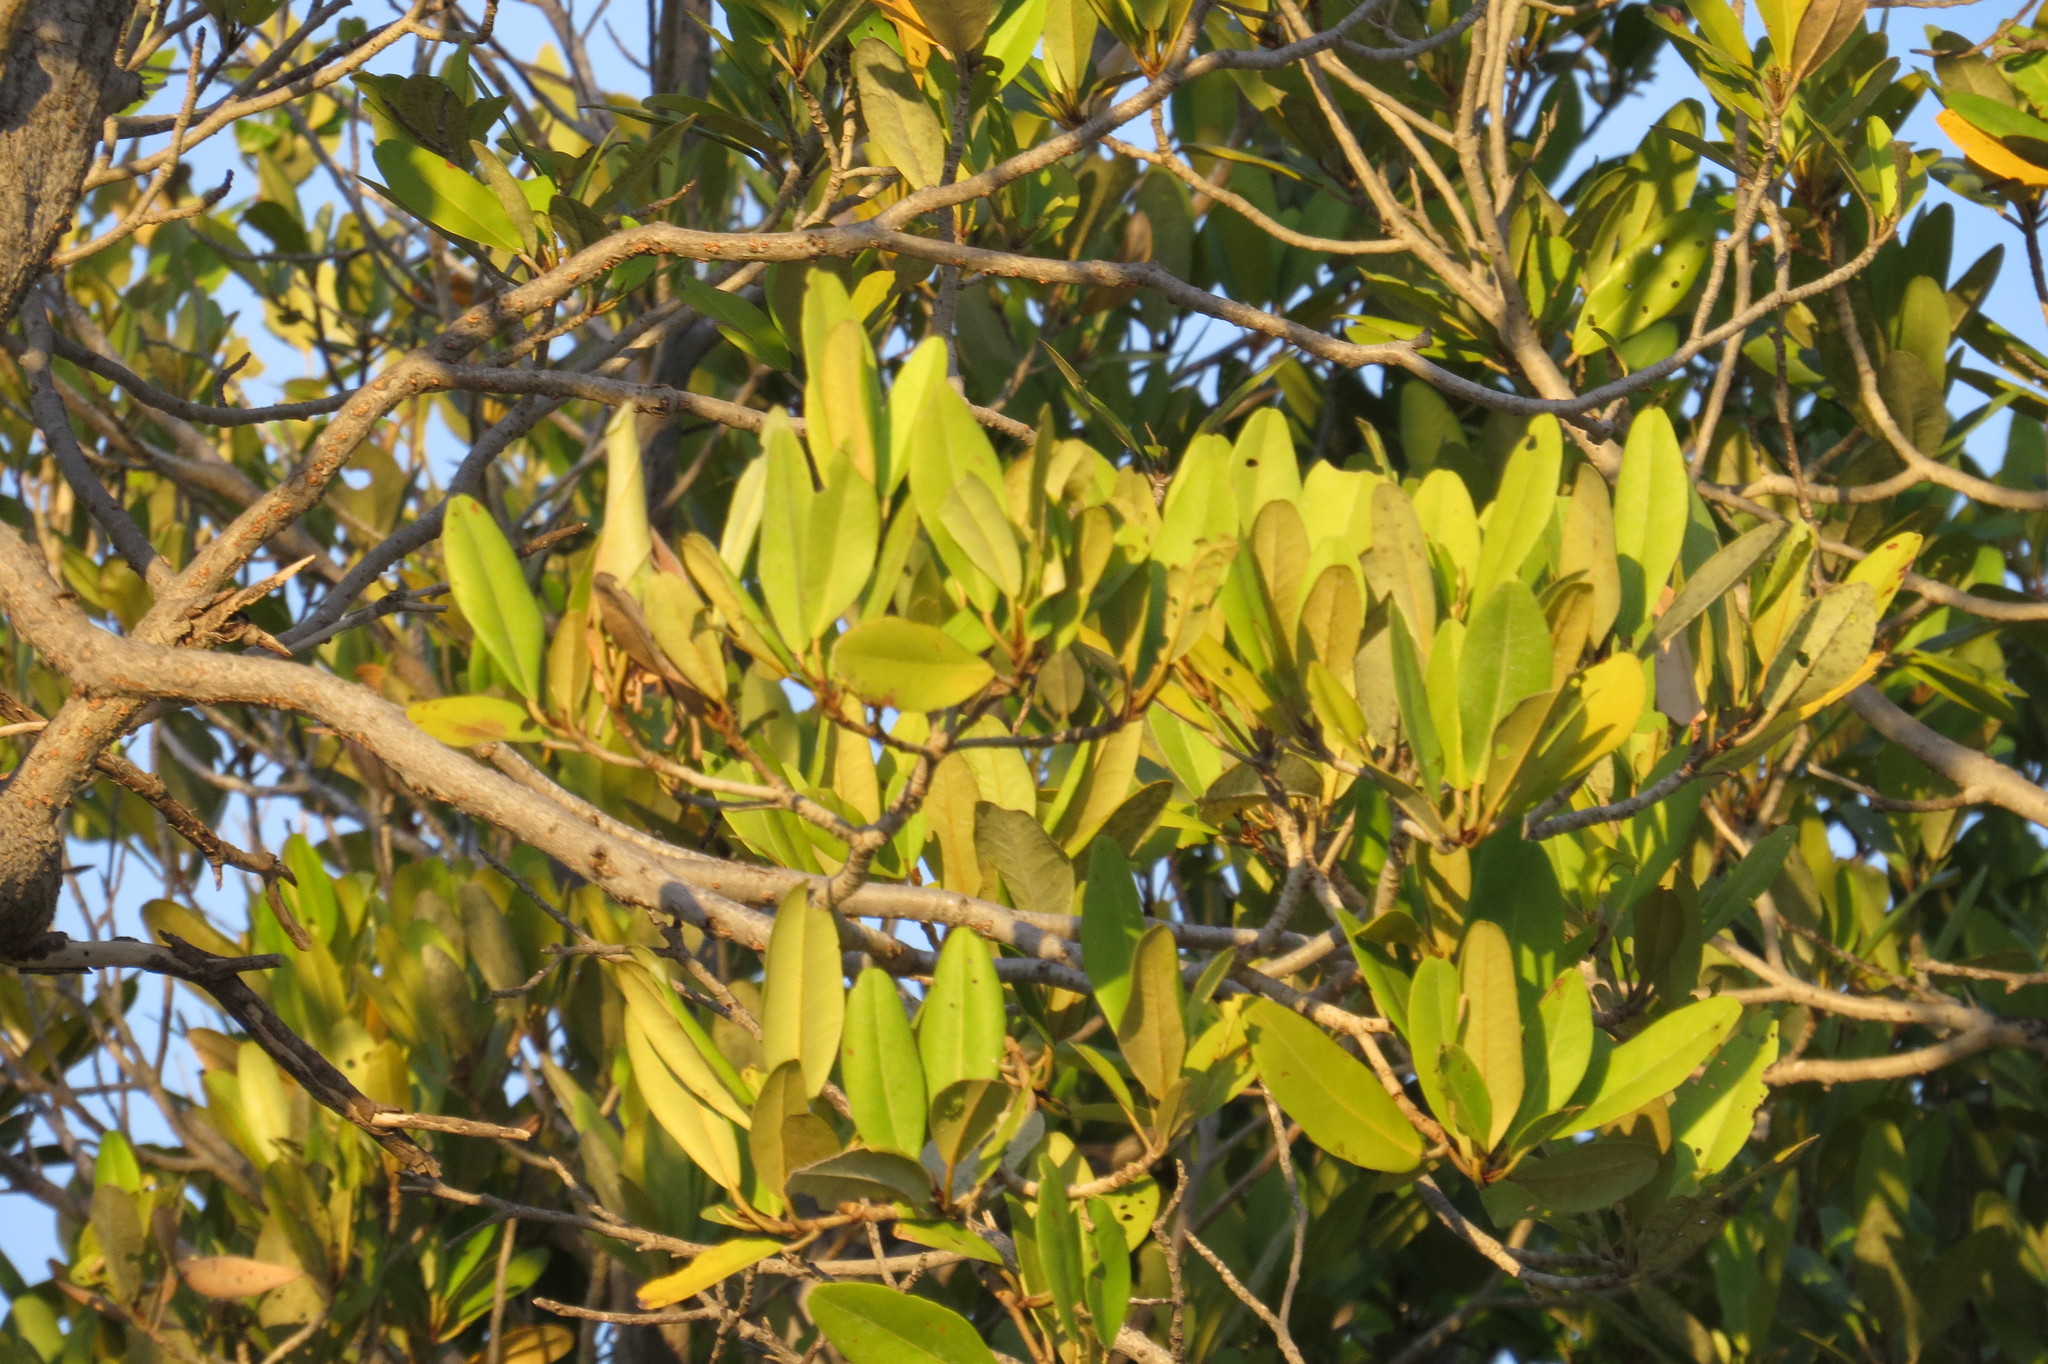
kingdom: Plantae
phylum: Tracheophyta
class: Magnoliopsida
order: Malvales
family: Malvaceae
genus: Camptostemon
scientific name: Camptostemon schultzii
